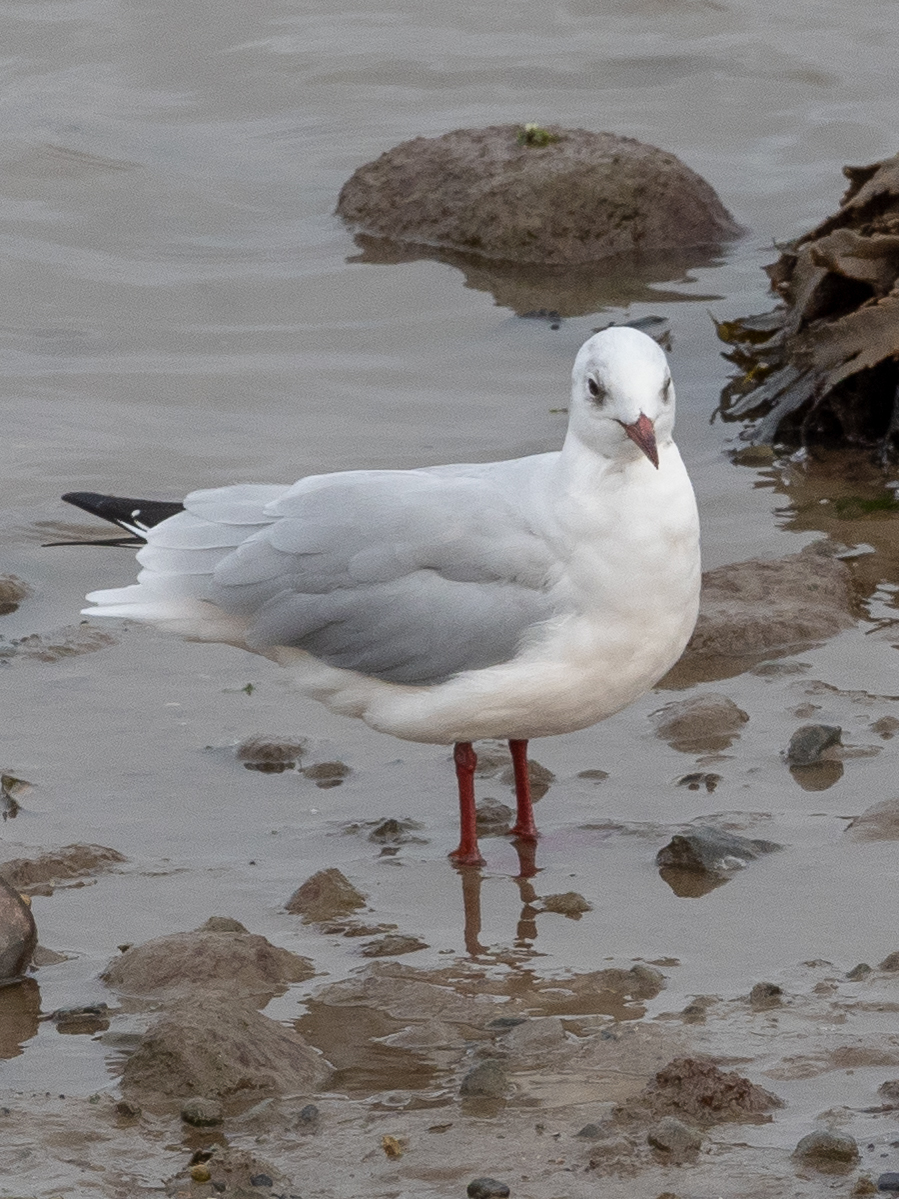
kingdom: Animalia
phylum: Chordata
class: Aves
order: Charadriiformes
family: Laridae
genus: Chroicocephalus
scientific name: Chroicocephalus ridibundus
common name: Black-headed gull
